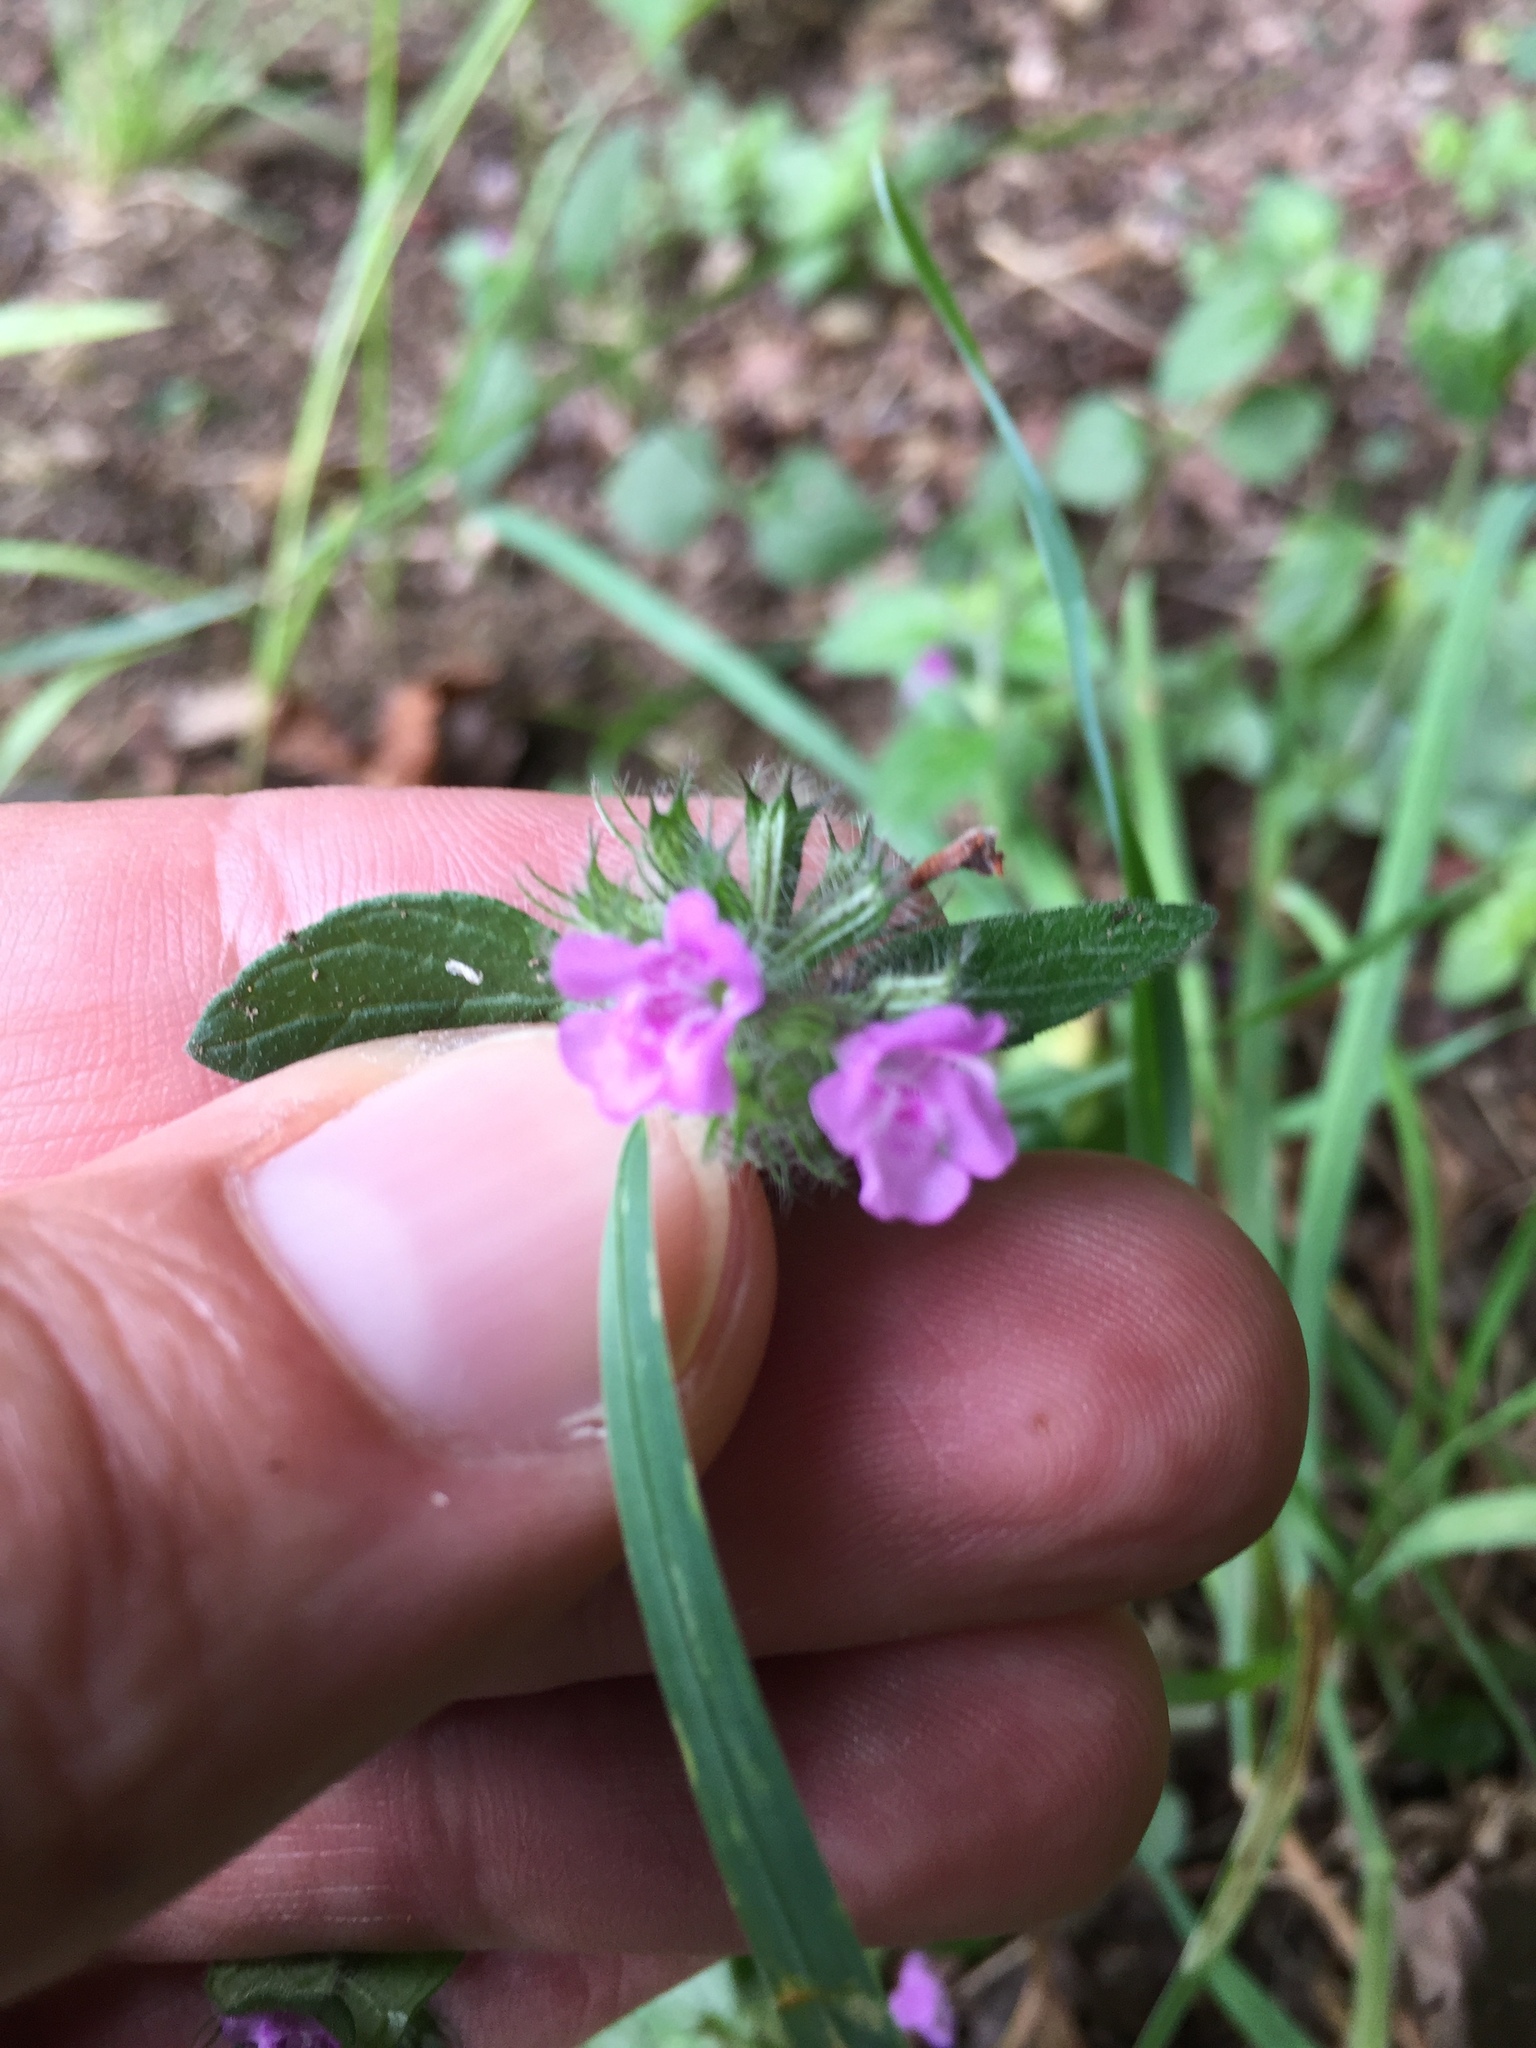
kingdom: Plantae
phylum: Tracheophyta
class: Magnoliopsida
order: Lamiales
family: Lamiaceae
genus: Clinopodium
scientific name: Clinopodium vulgare
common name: Wild basil
